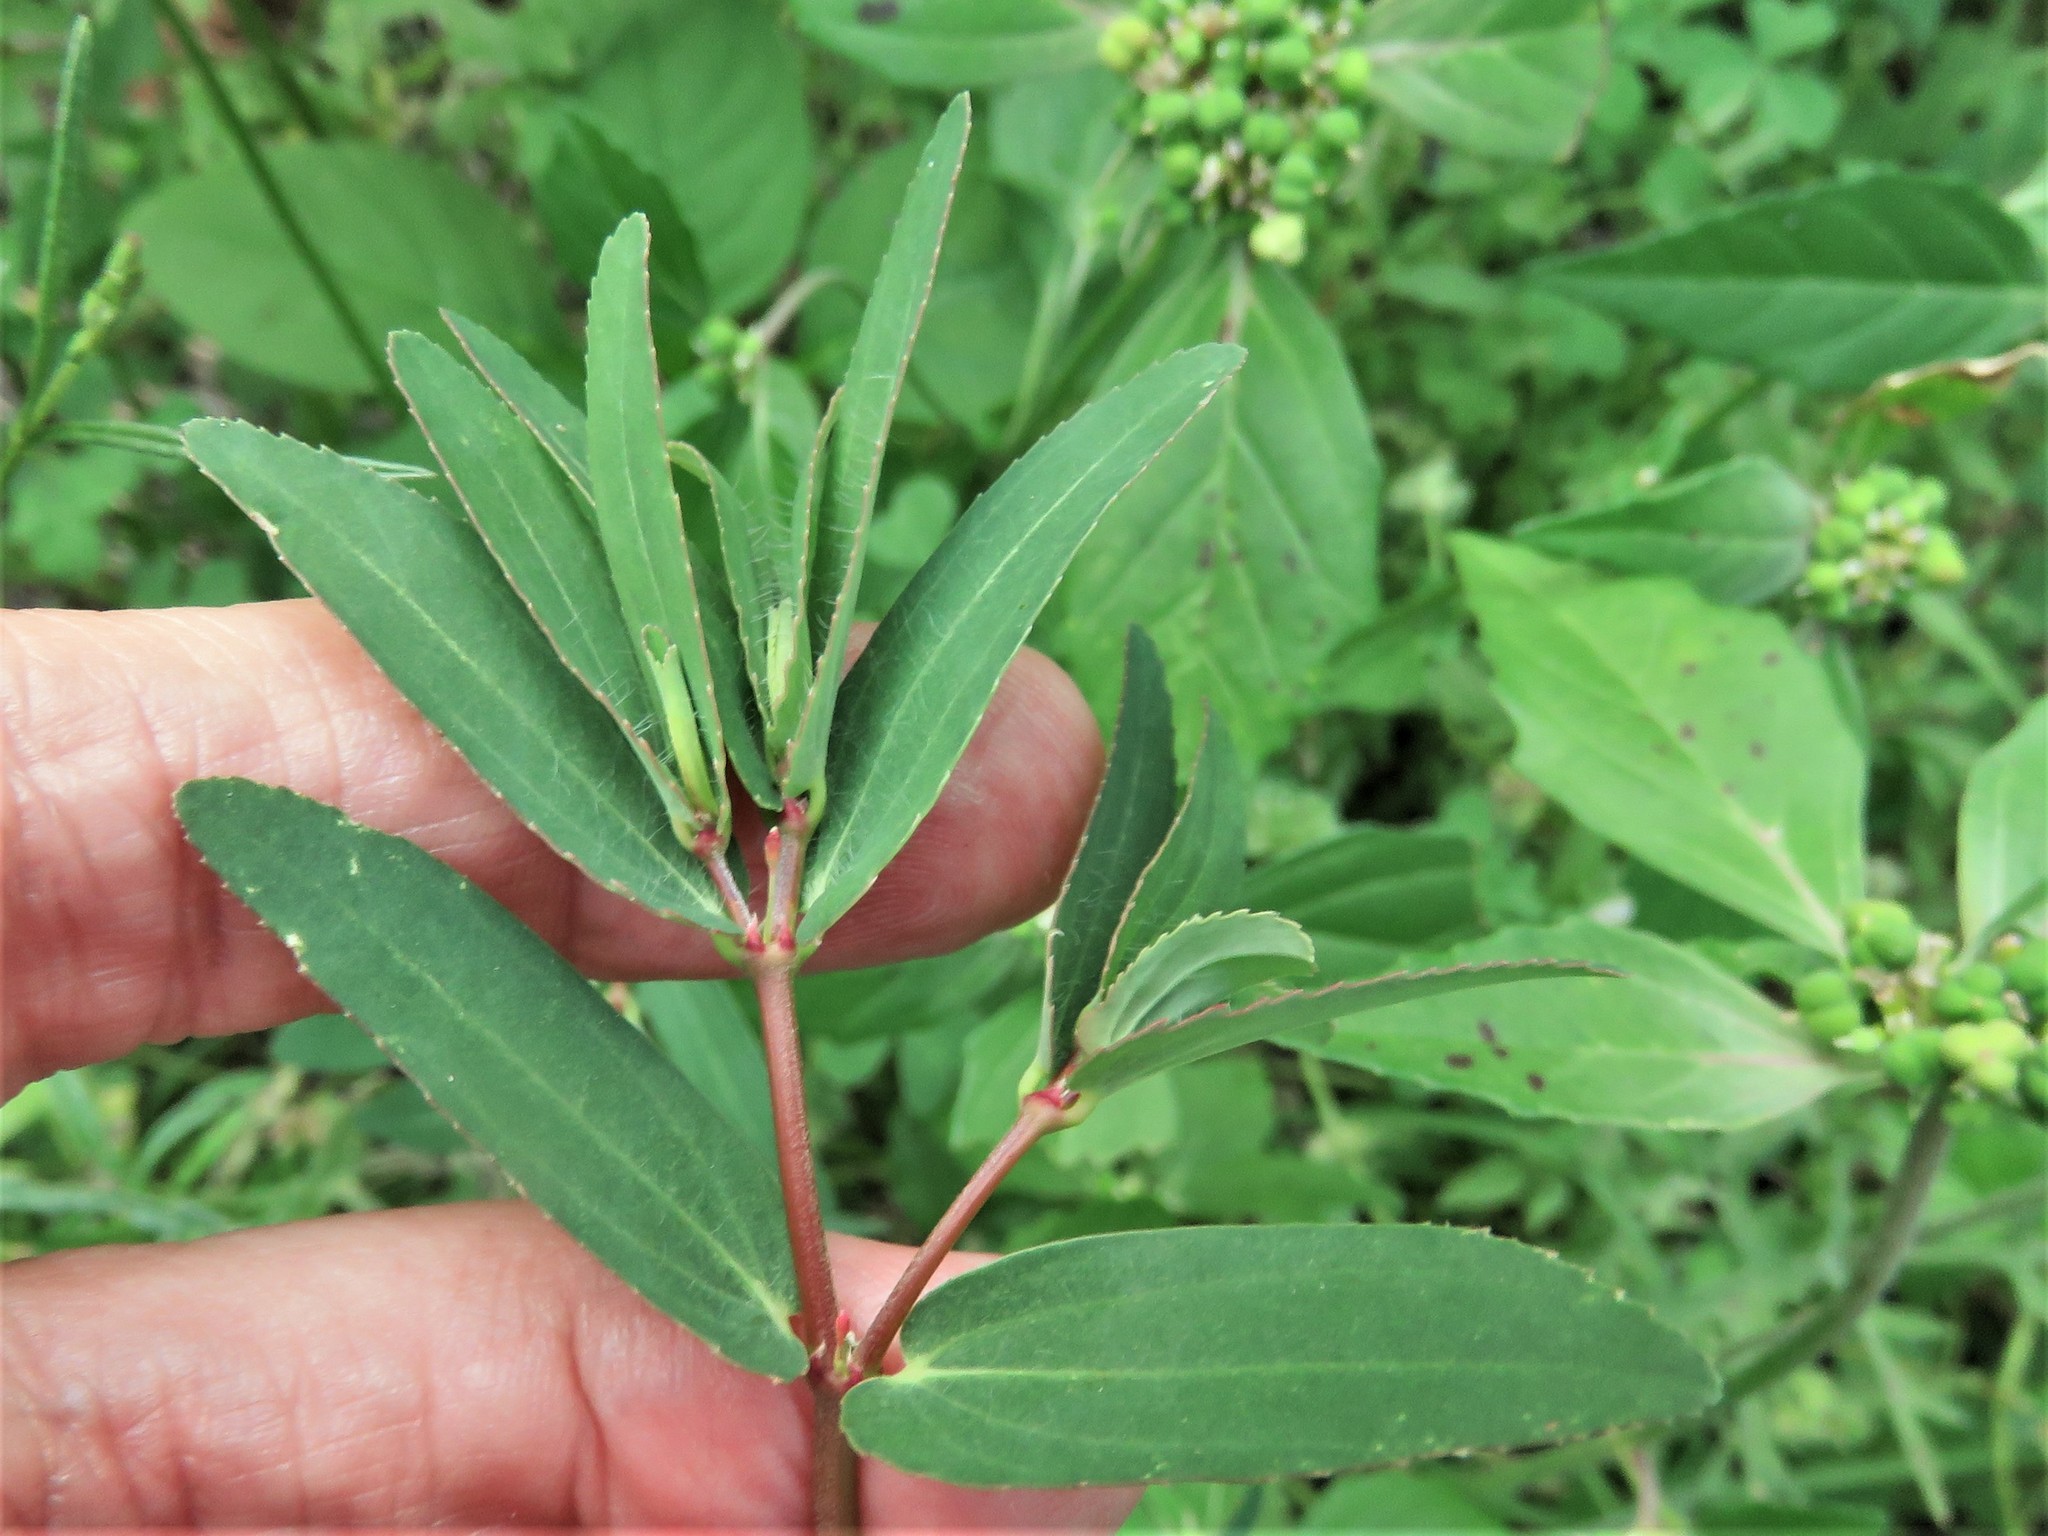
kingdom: Plantae
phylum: Tracheophyta
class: Magnoliopsida
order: Malpighiales
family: Euphorbiaceae
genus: Euphorbia
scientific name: Euphorbia nutans
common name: Eyebane
